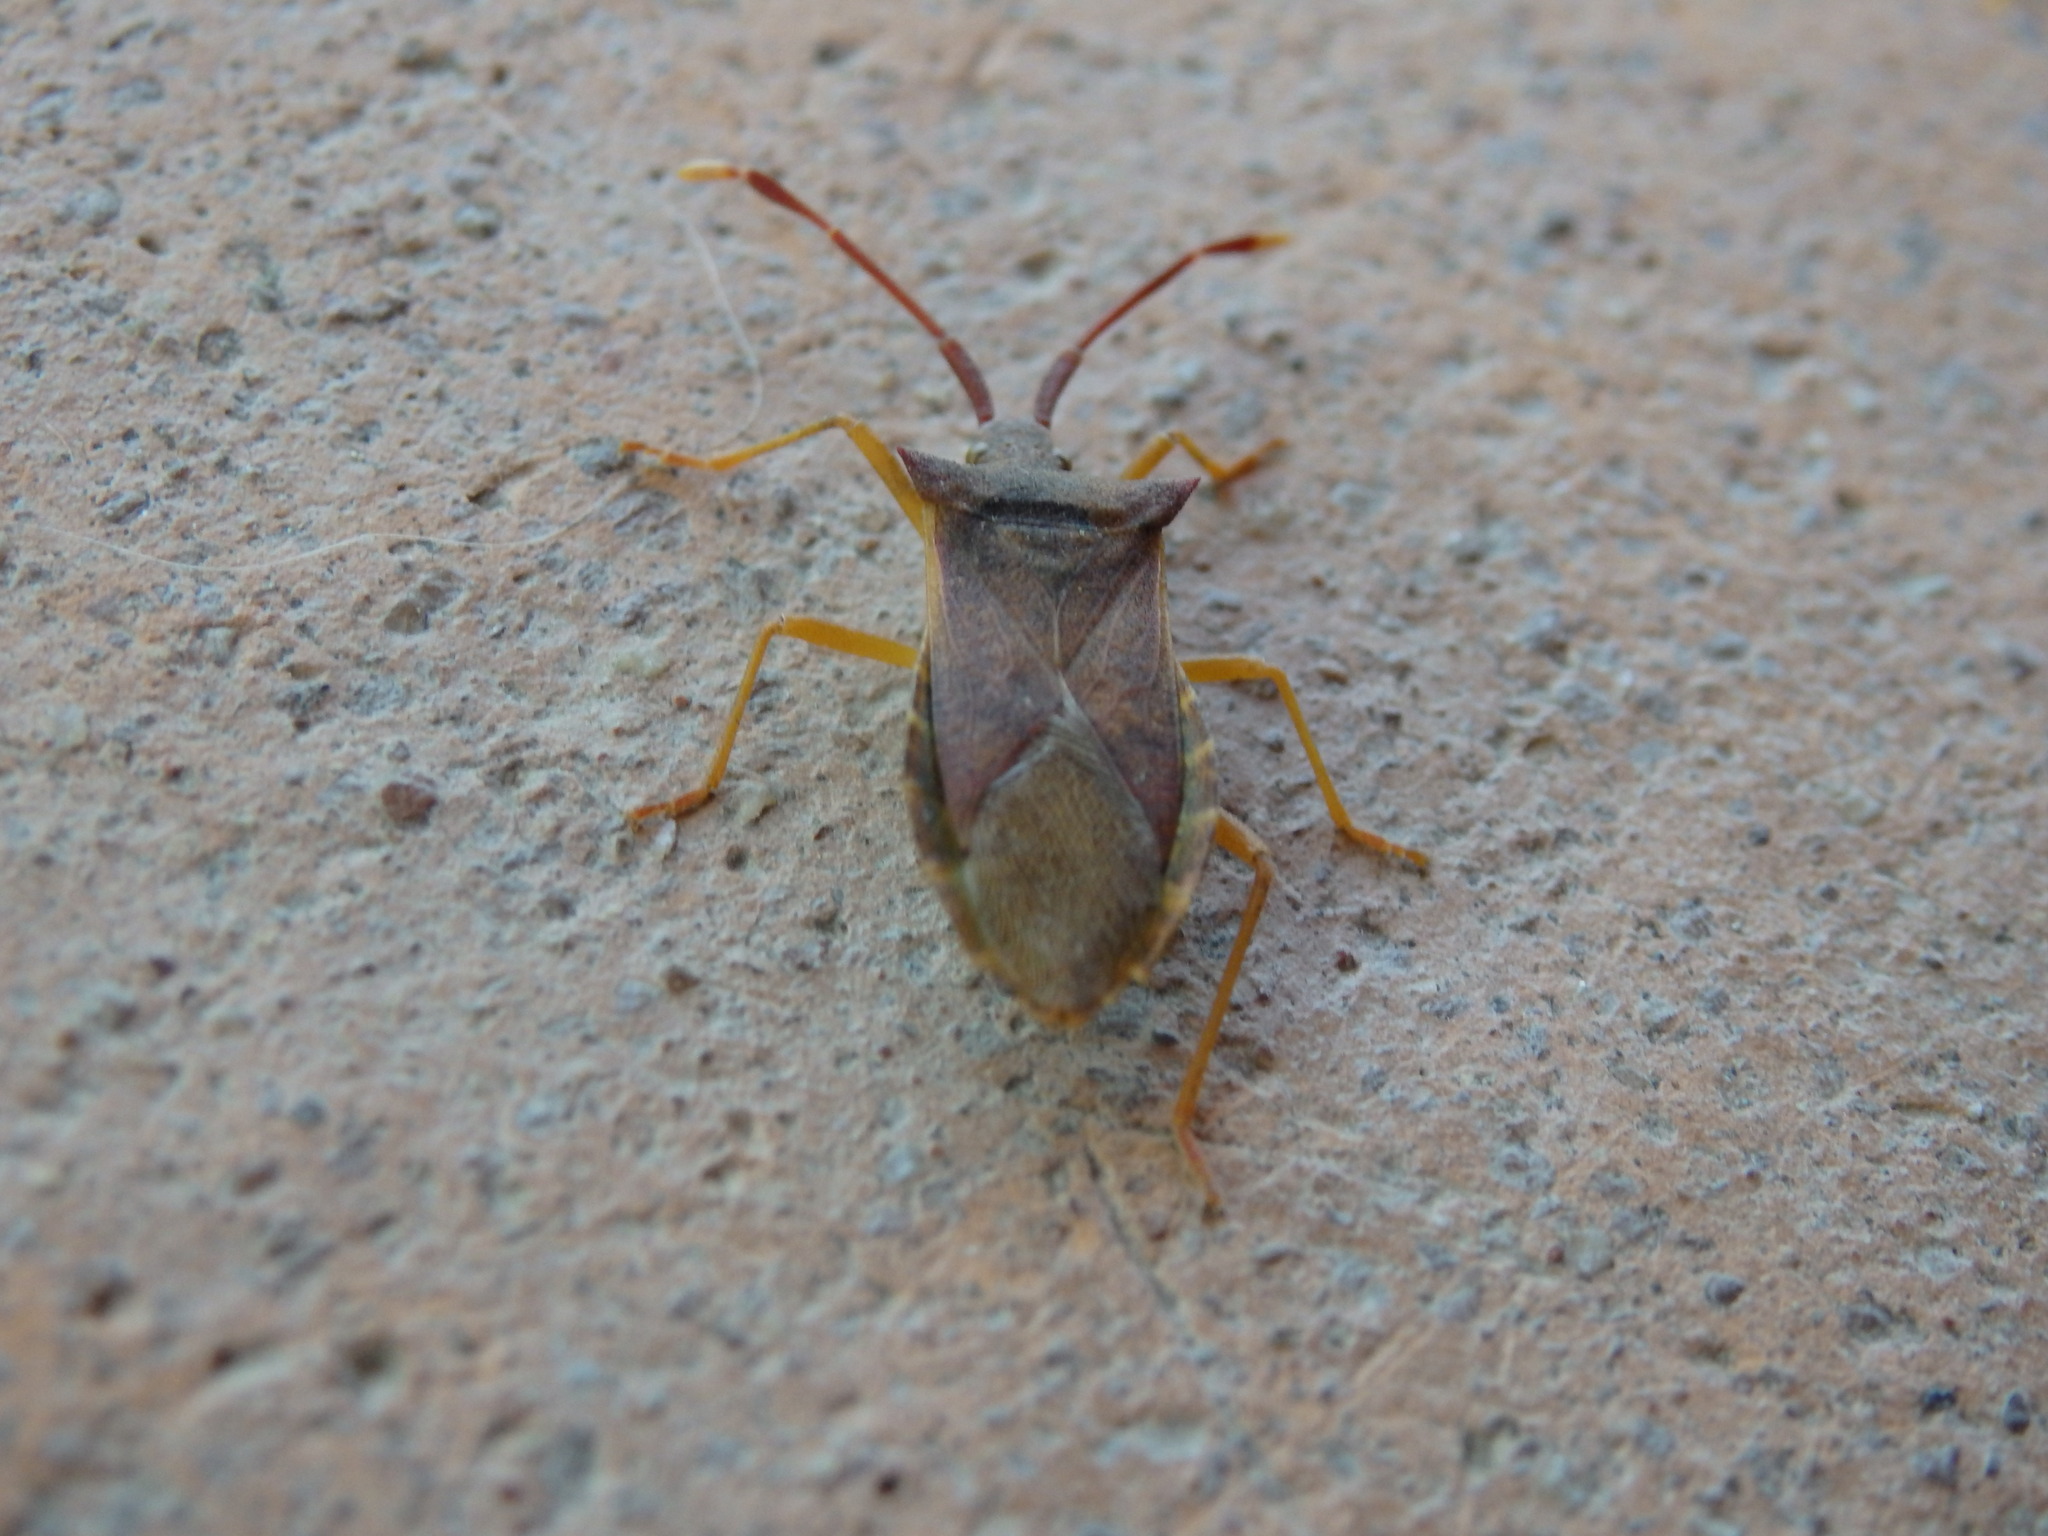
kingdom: Animalia
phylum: Arthropoda
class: Insecta
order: Hemiptera
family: Coreidae
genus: Gonocerus
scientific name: Gonocerus acuteangulatus
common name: Box bug
